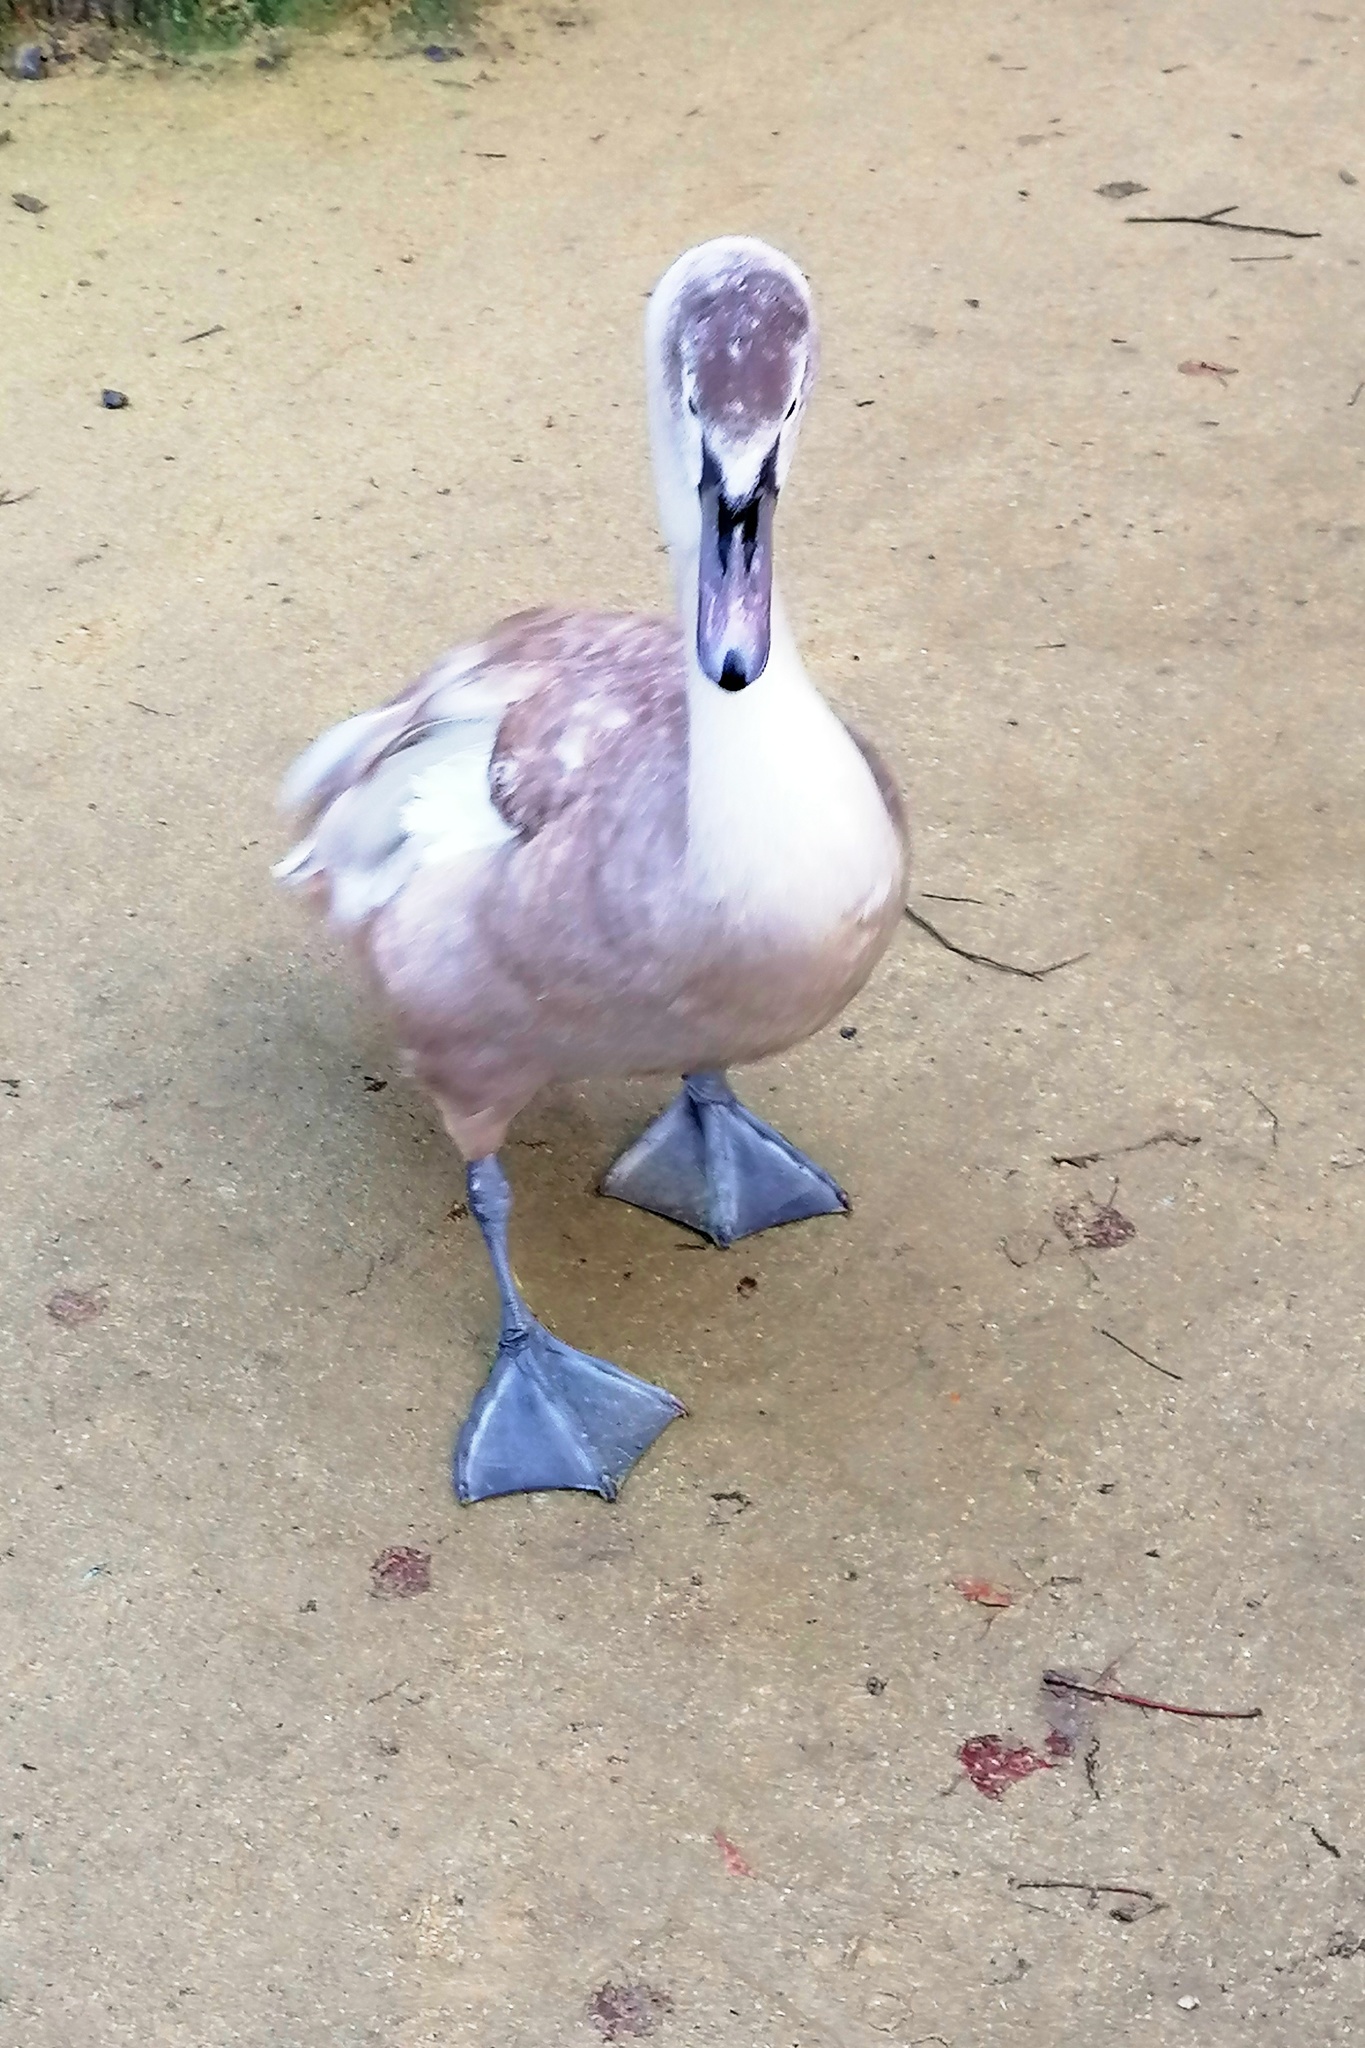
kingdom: Animalia
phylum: Chordata
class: Aves
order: Anseriformes
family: Anatidae
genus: Cygnus
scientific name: Cygnus olor
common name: Mute swan
